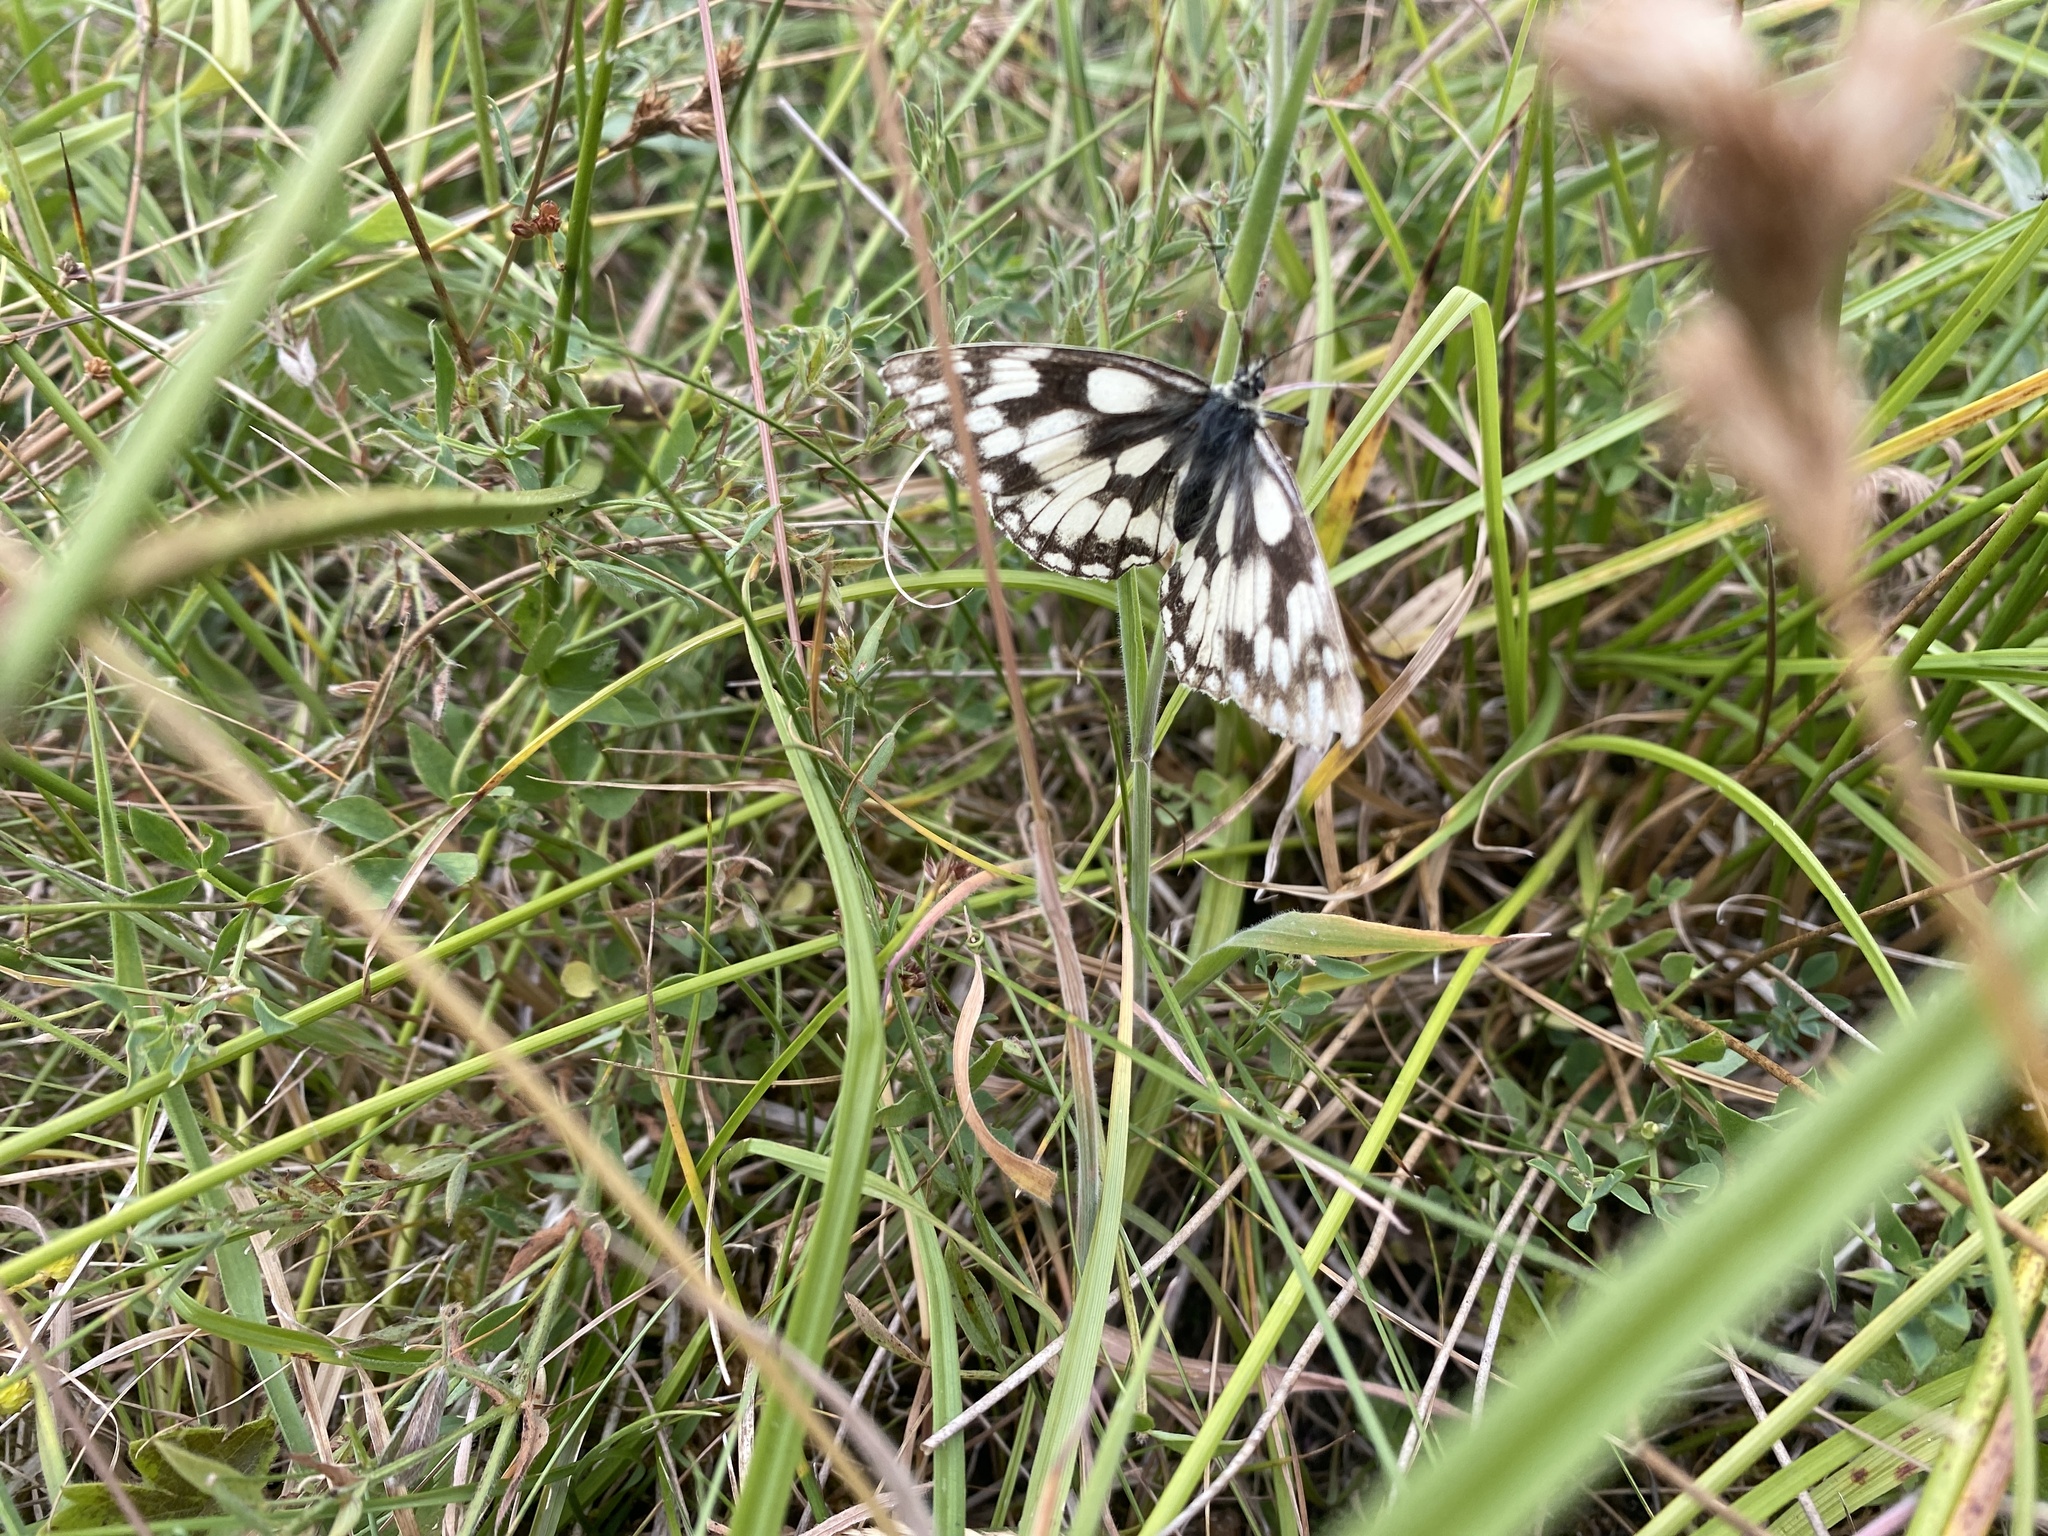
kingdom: Animalia
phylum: Arthropoda
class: Insecta
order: Lepidoptera
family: Nymphalidae
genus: Melanargia
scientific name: Melanargia galathea
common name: Marbled white
